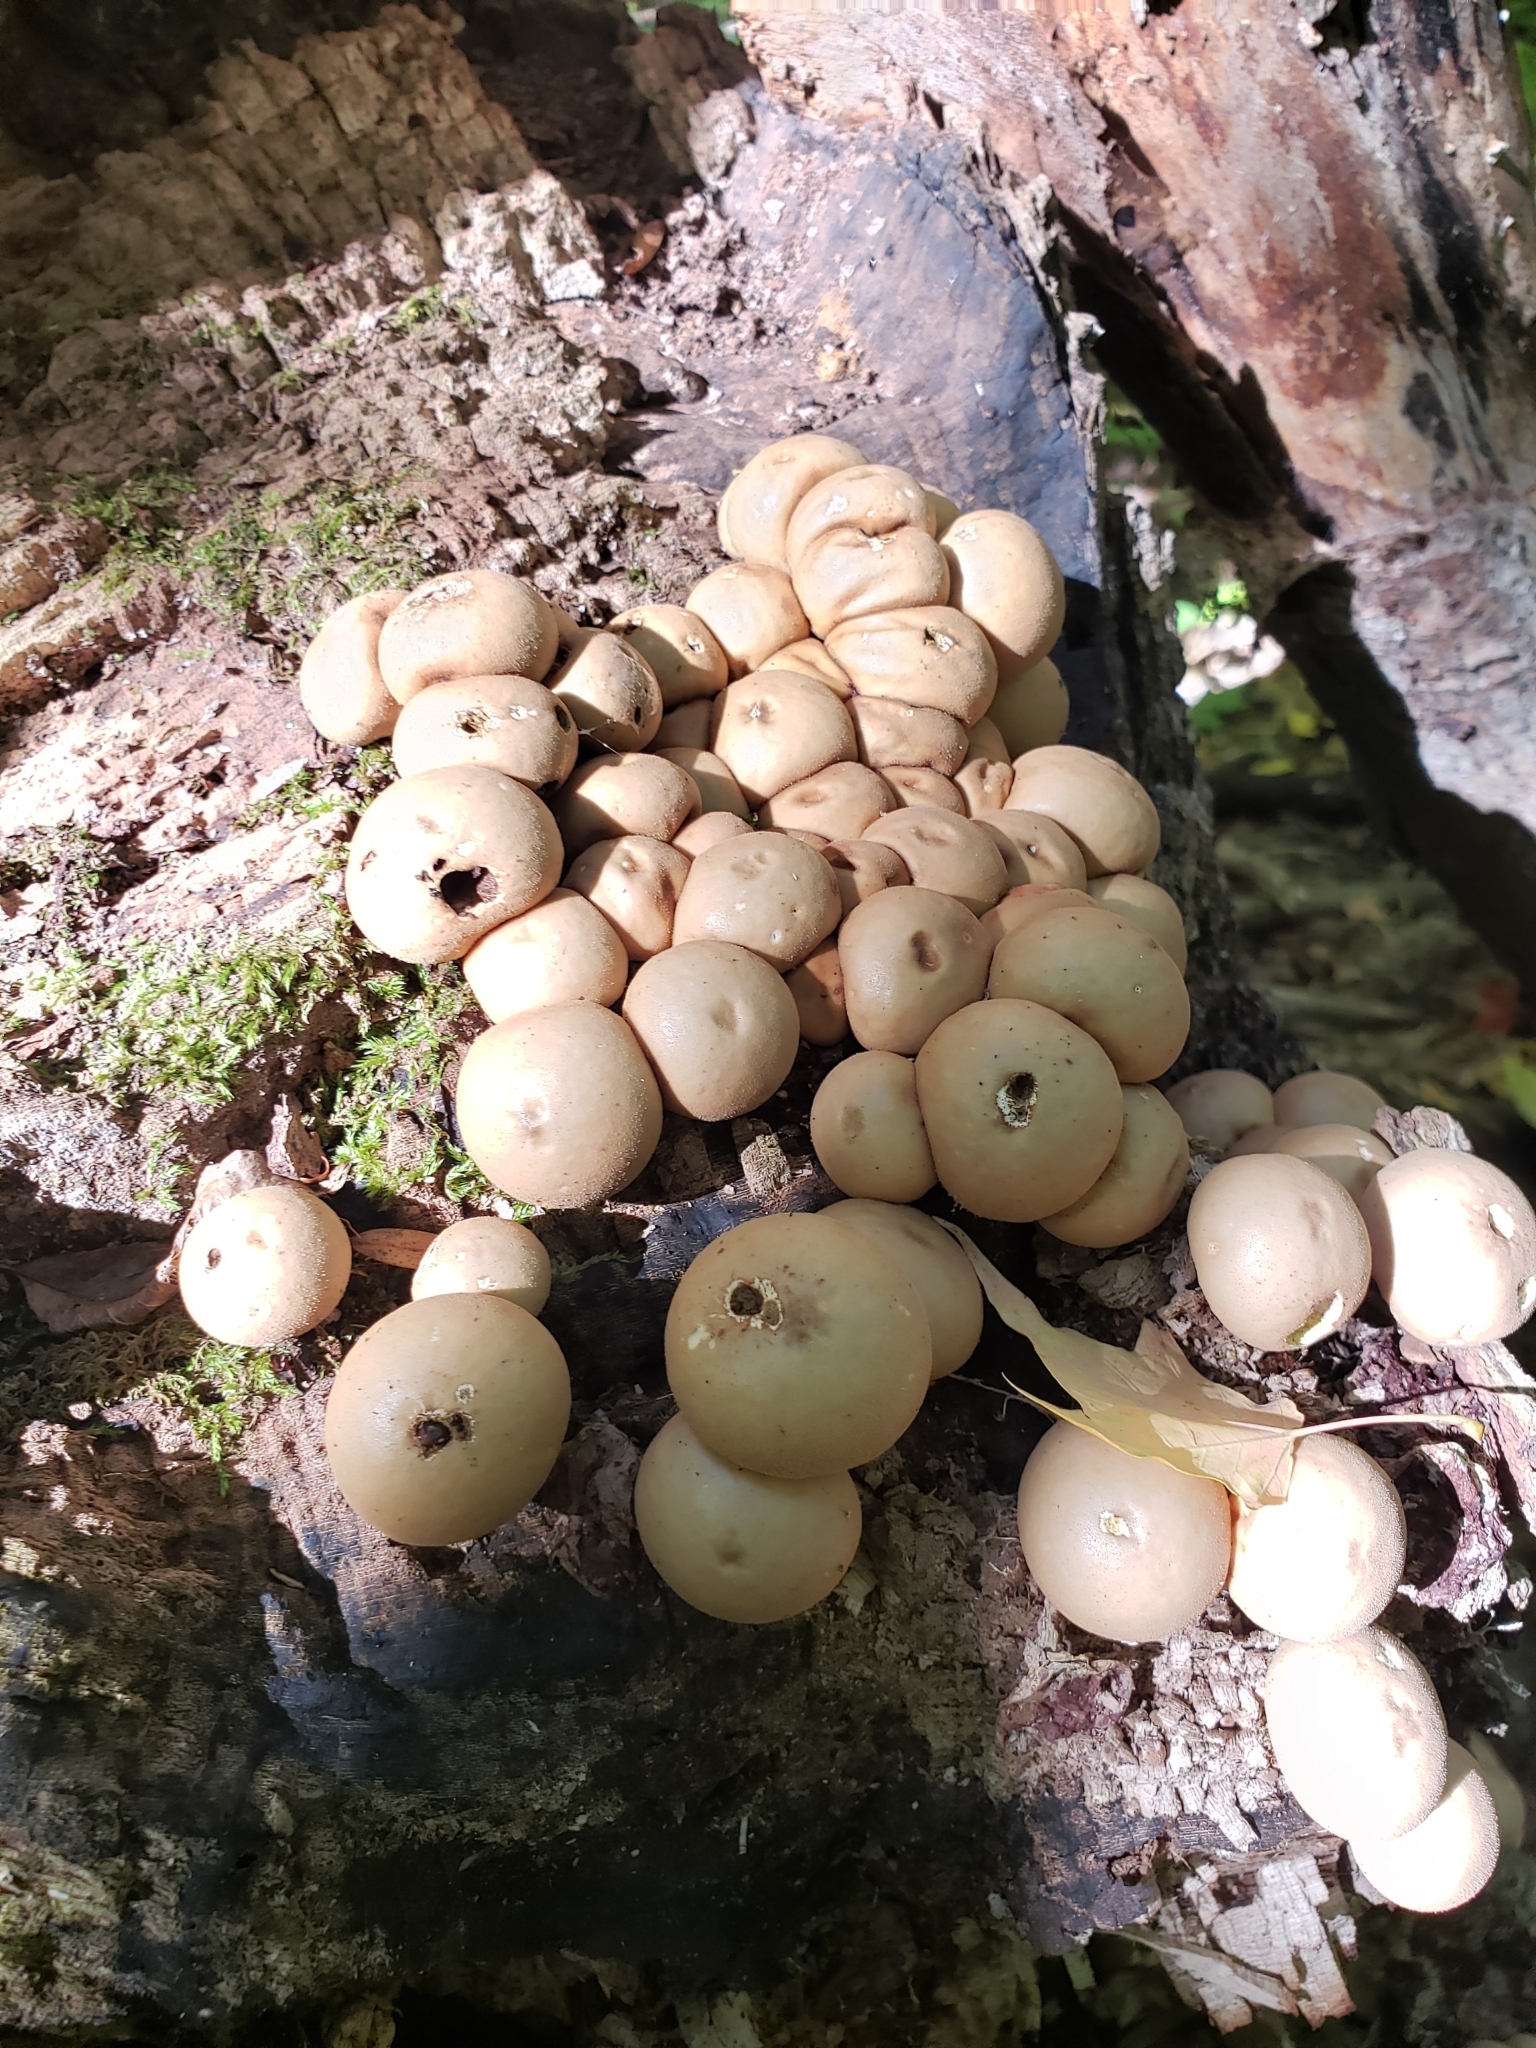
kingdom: Fungi
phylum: Basidiomycota
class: Agaricomycetes
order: Agaricales
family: Lycoperdaceae
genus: Apioperdon
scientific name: Apioperdon pyriforme
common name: Pear-shaped puffball
